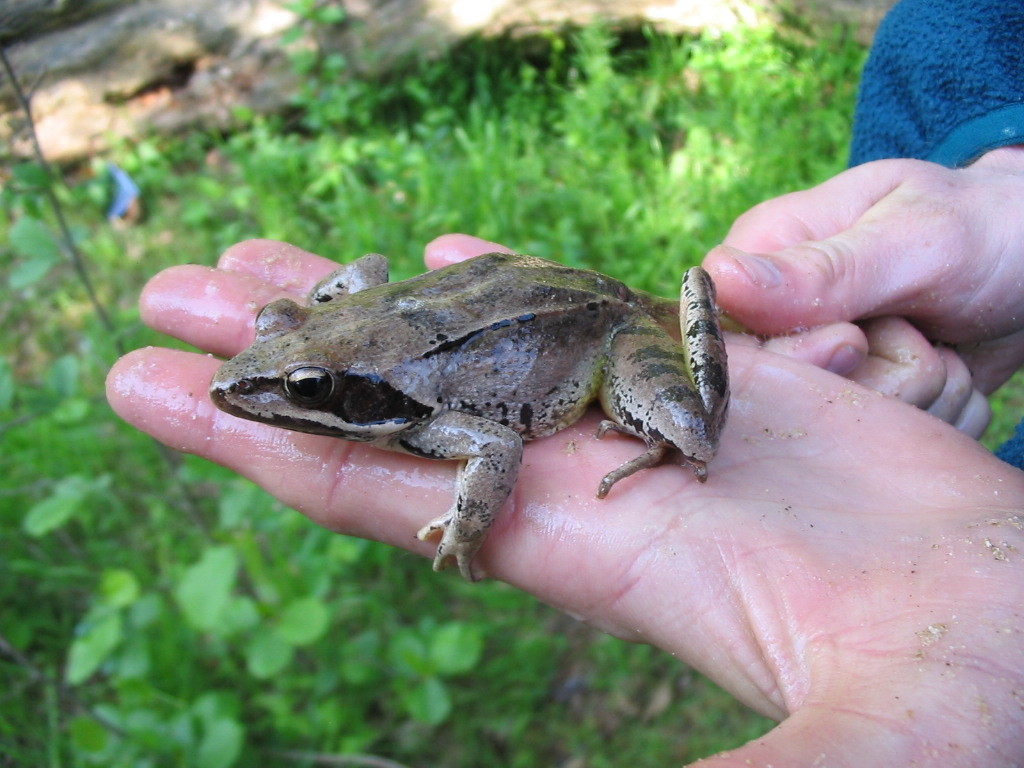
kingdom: Animalia
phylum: Chordata
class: Amphibia
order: Anura
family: Ranidae
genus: Rana
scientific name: Rana dalmatina
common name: Agile frog
